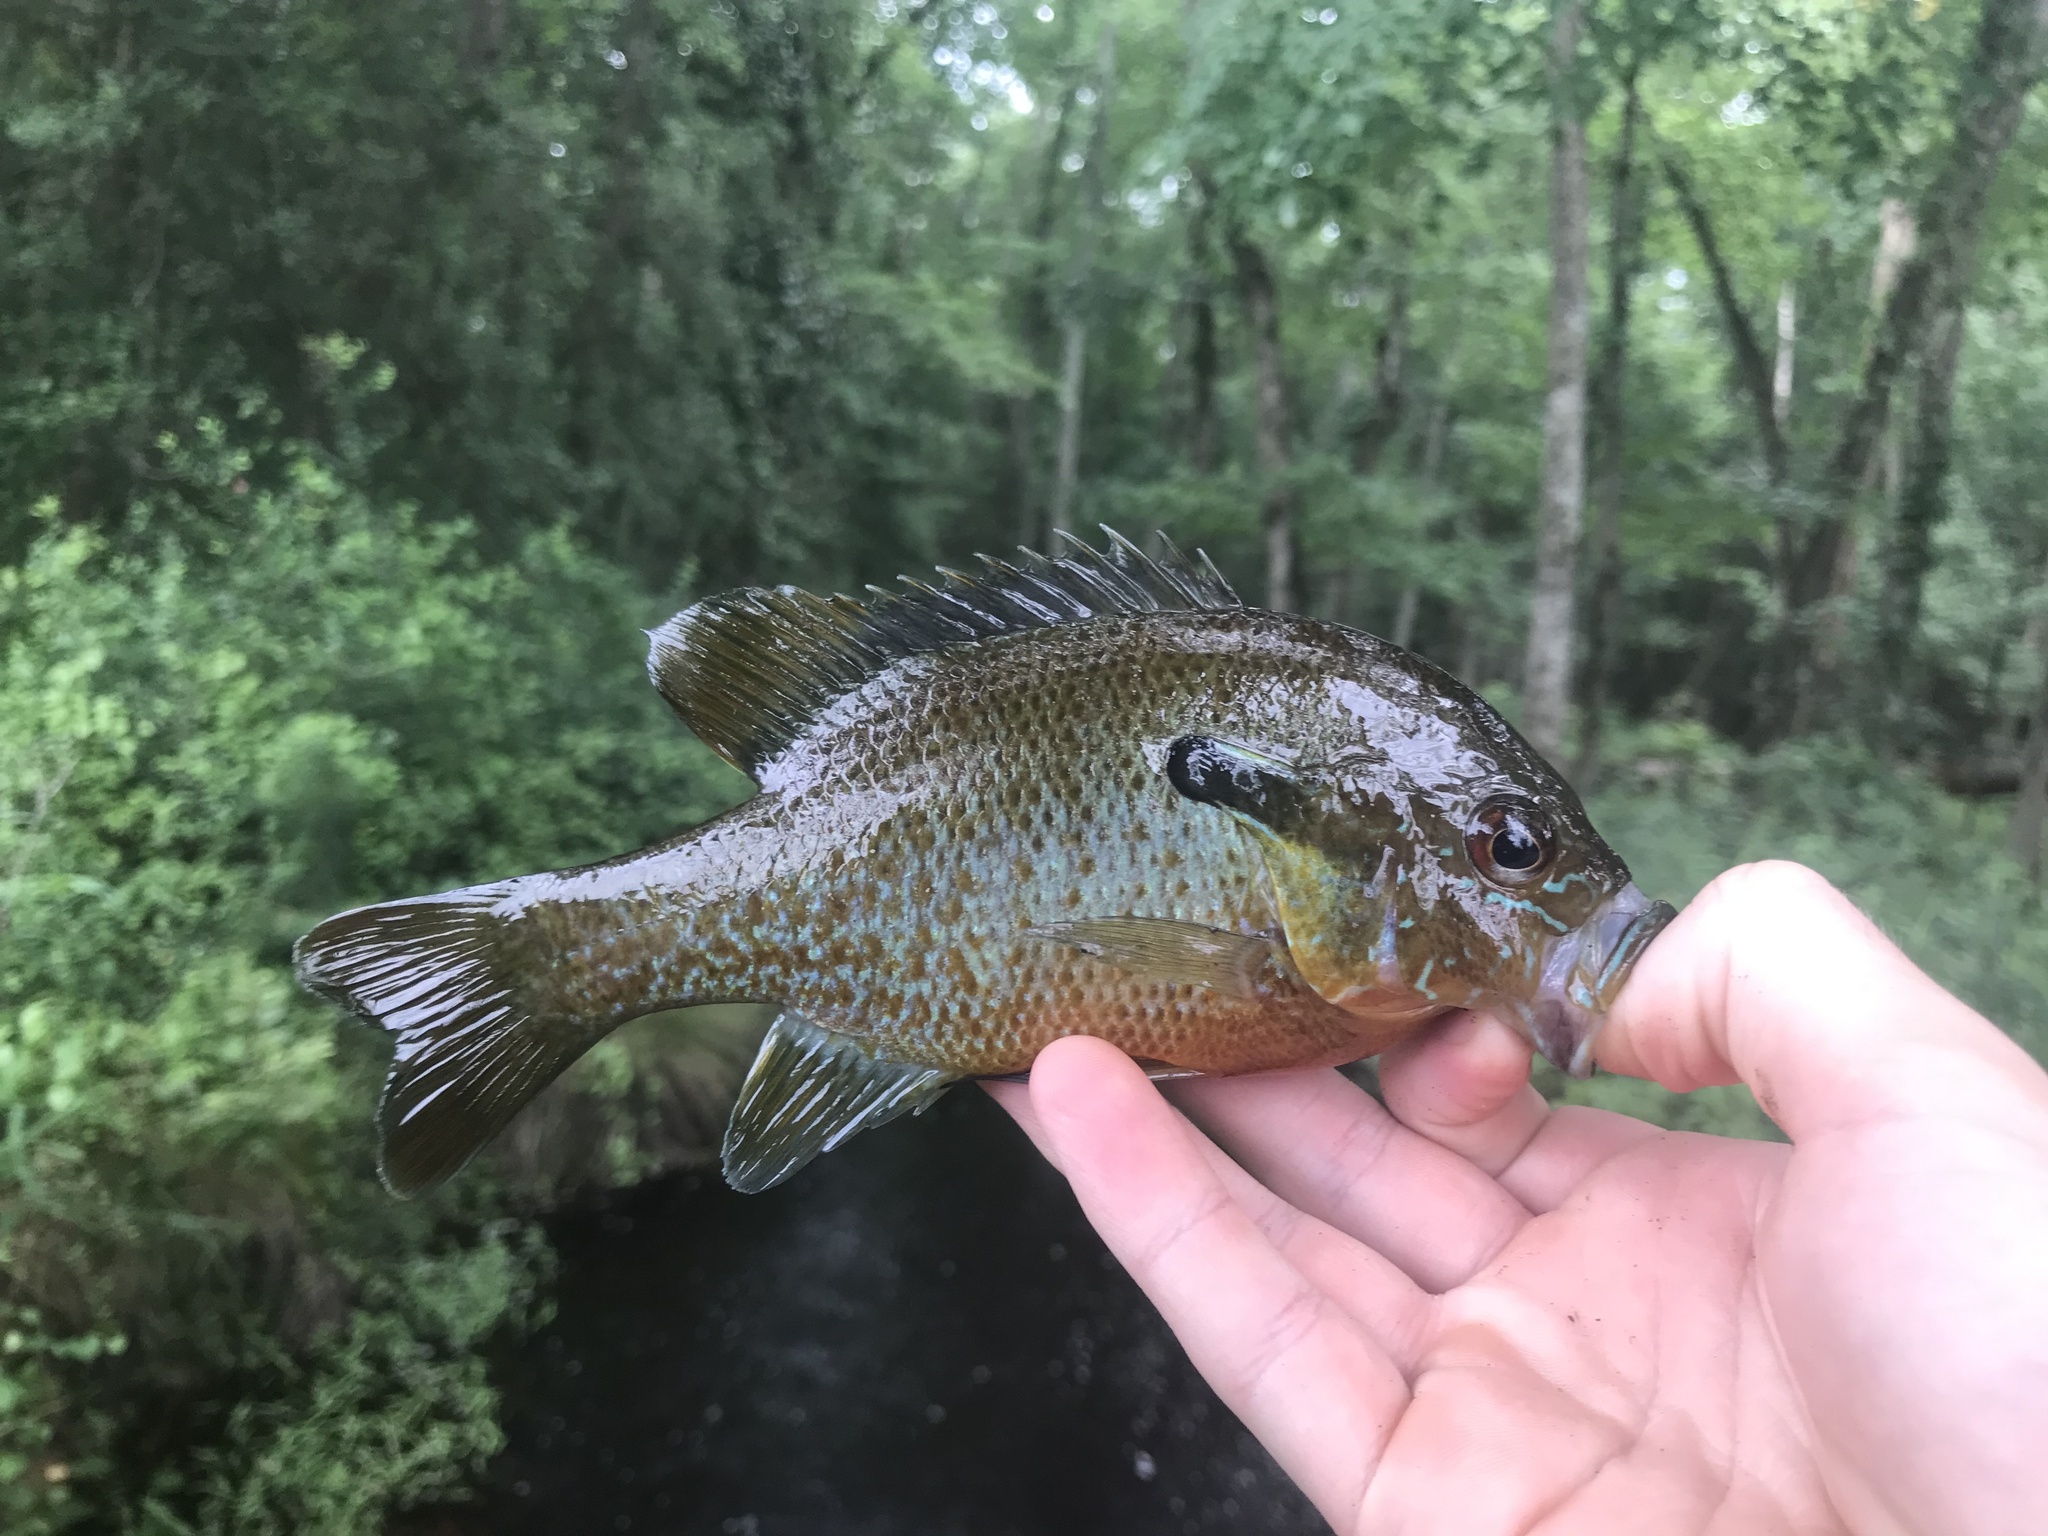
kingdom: Animalia
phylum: Chordata
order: Perciformes
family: Centrarchidae
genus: Lepomis
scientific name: Lepomis auritus
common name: Redbreast sunfish
